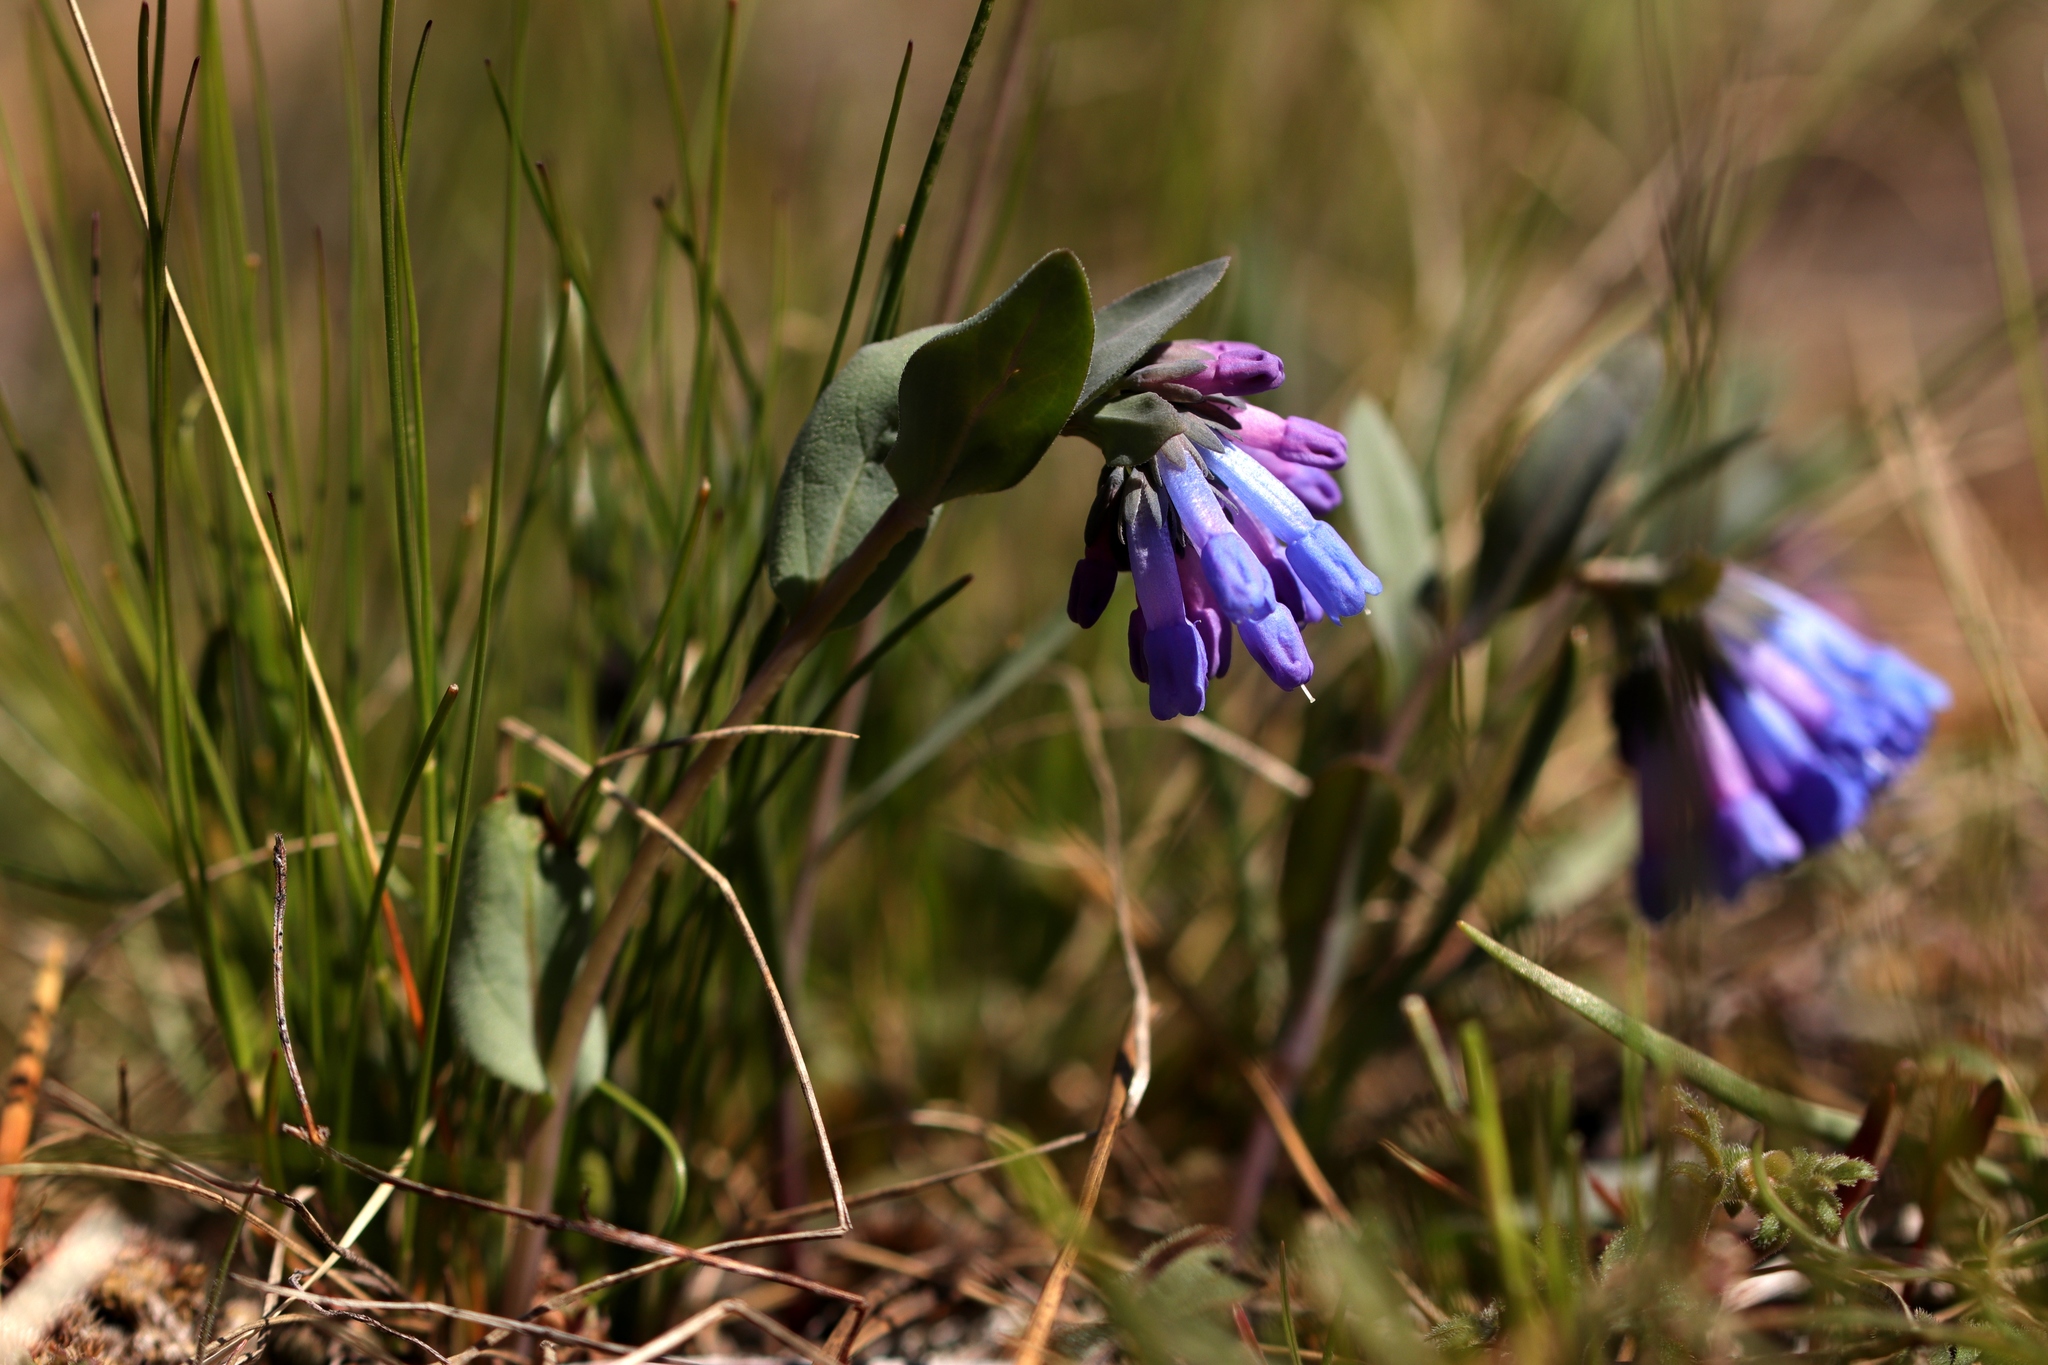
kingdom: Plantae
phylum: Tracheophyta
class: Magnoliopsida
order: Boraginales
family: Boraginaceae
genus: Mertensia
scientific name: Mertensia longiflora
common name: Large-flowered bluebells
